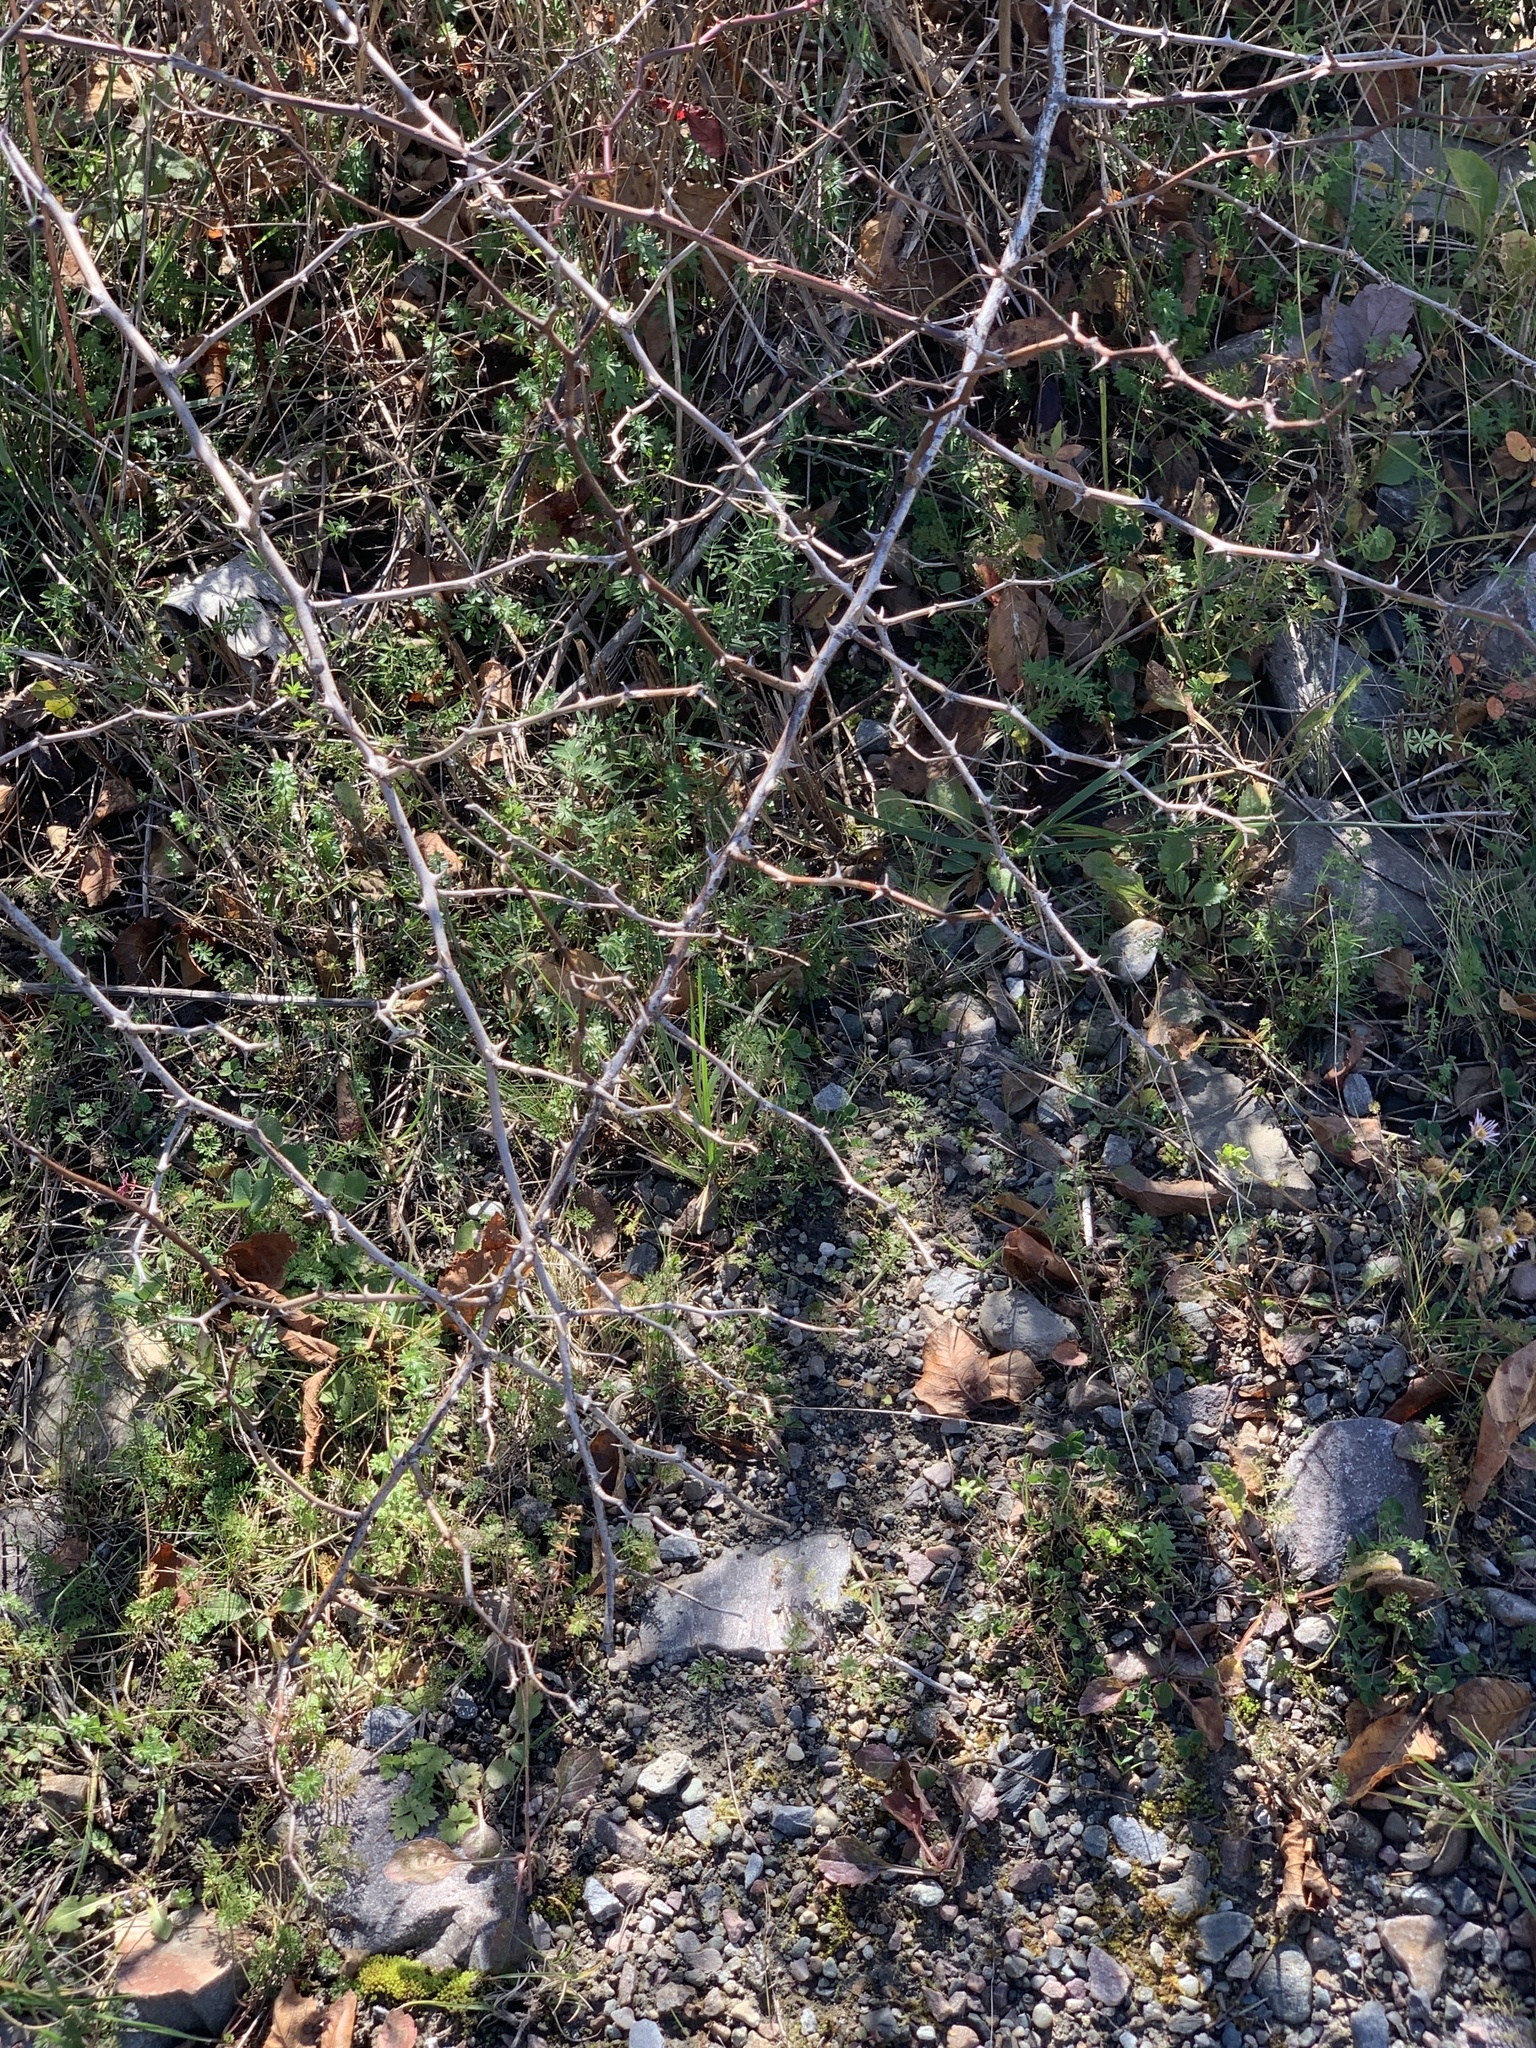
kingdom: Plantae
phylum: Tracheophyta
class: Magnoliopsida
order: Rosales
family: Rosaceae
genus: Rosa
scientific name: Rosa multiflora
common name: Multiflora rose
